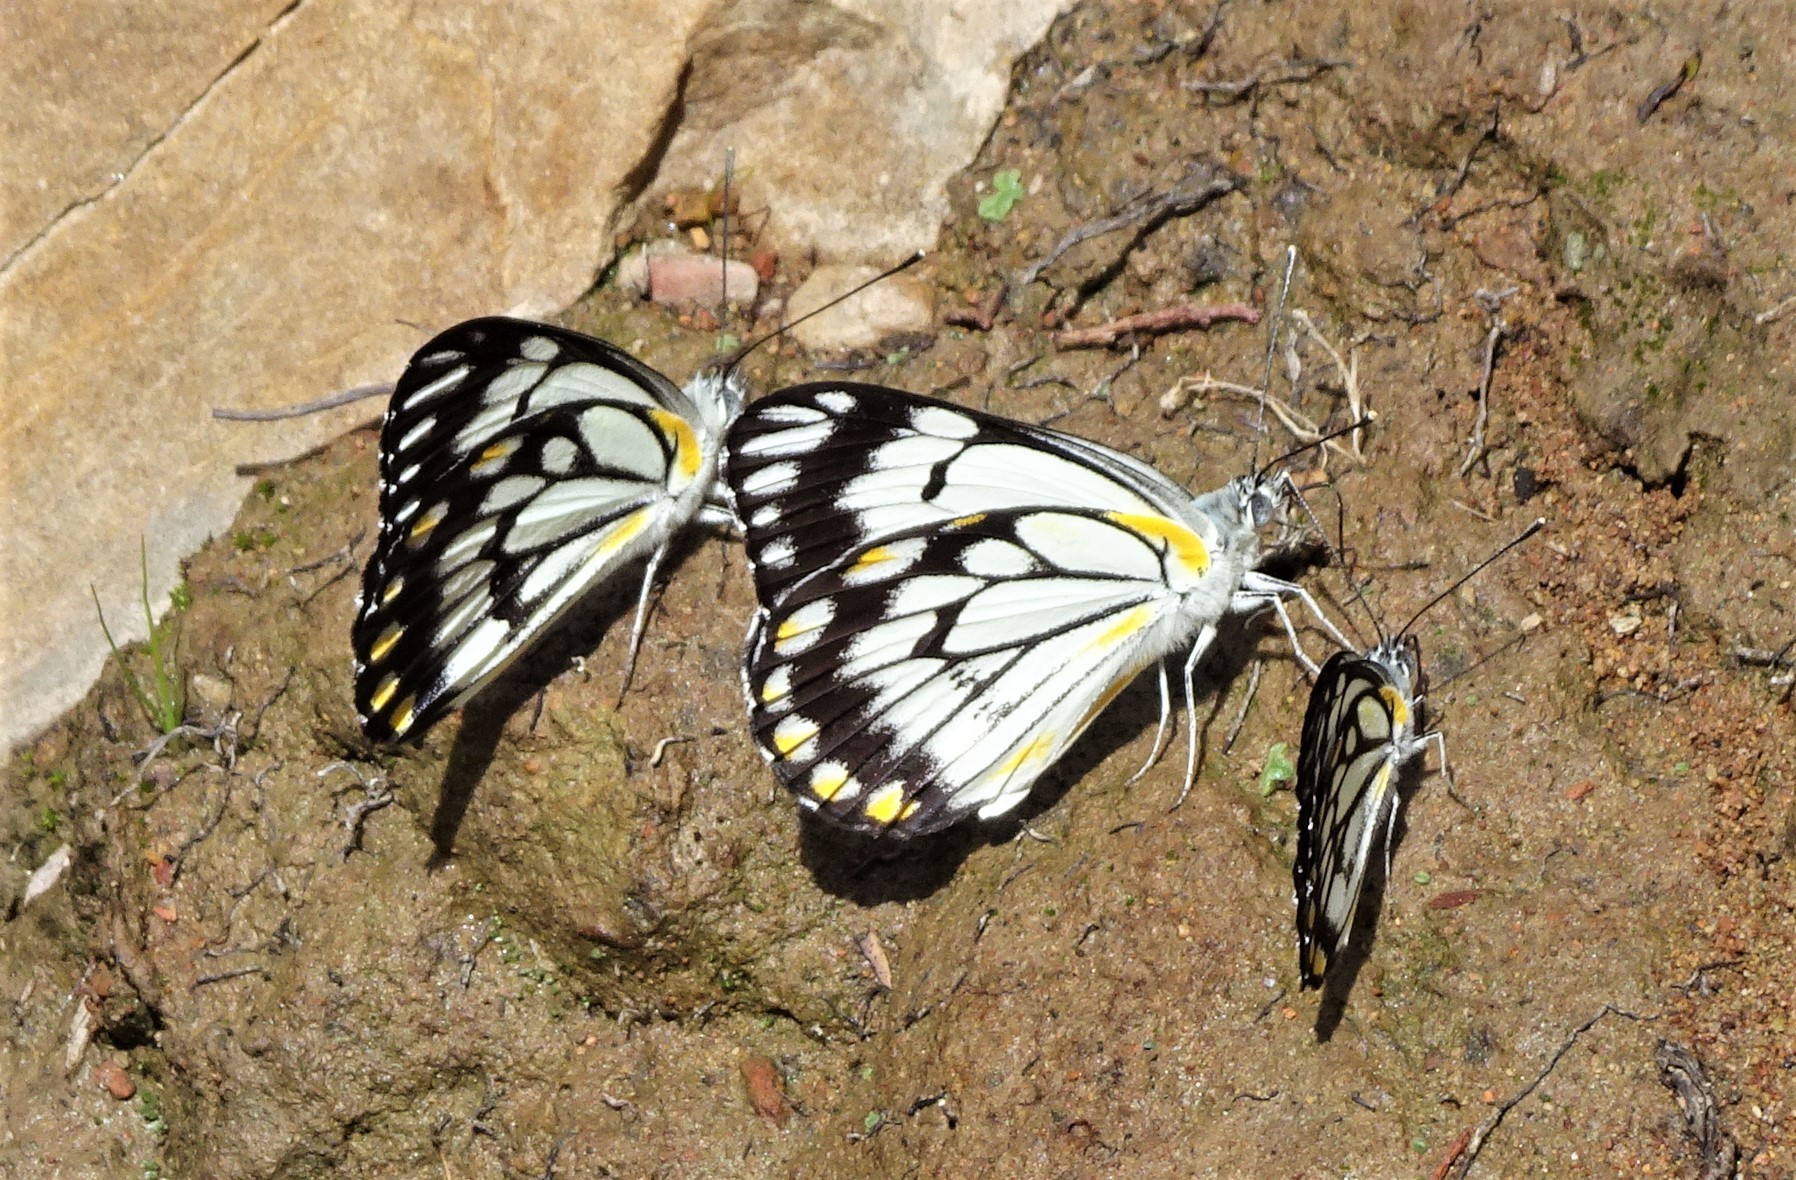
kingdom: Animalia
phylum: Arthropoda
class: Insecta
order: Lepidoptera
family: Pieridae
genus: Belenois
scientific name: Belenois java
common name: Caper white
